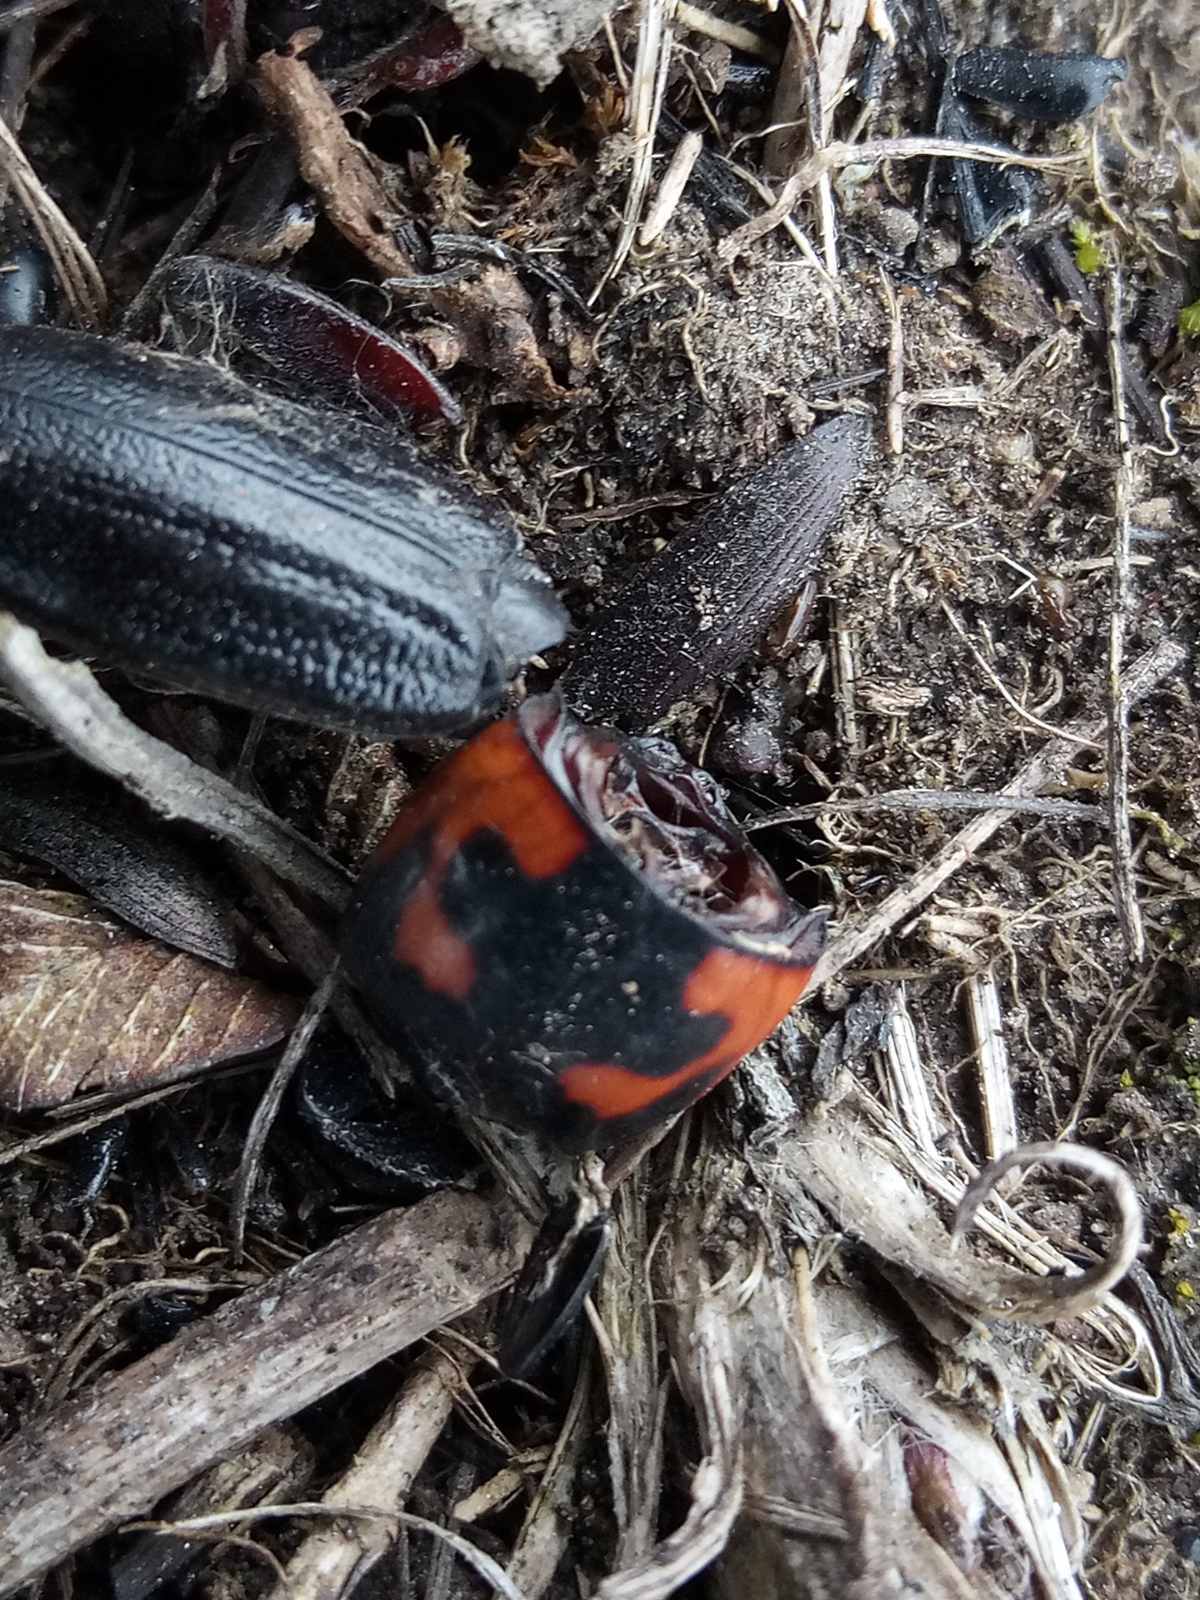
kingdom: Animalia
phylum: Arthropoda
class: Insecta
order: Coleoptera
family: Histeridae
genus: Hister
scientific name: Hister quadrimaculatus
